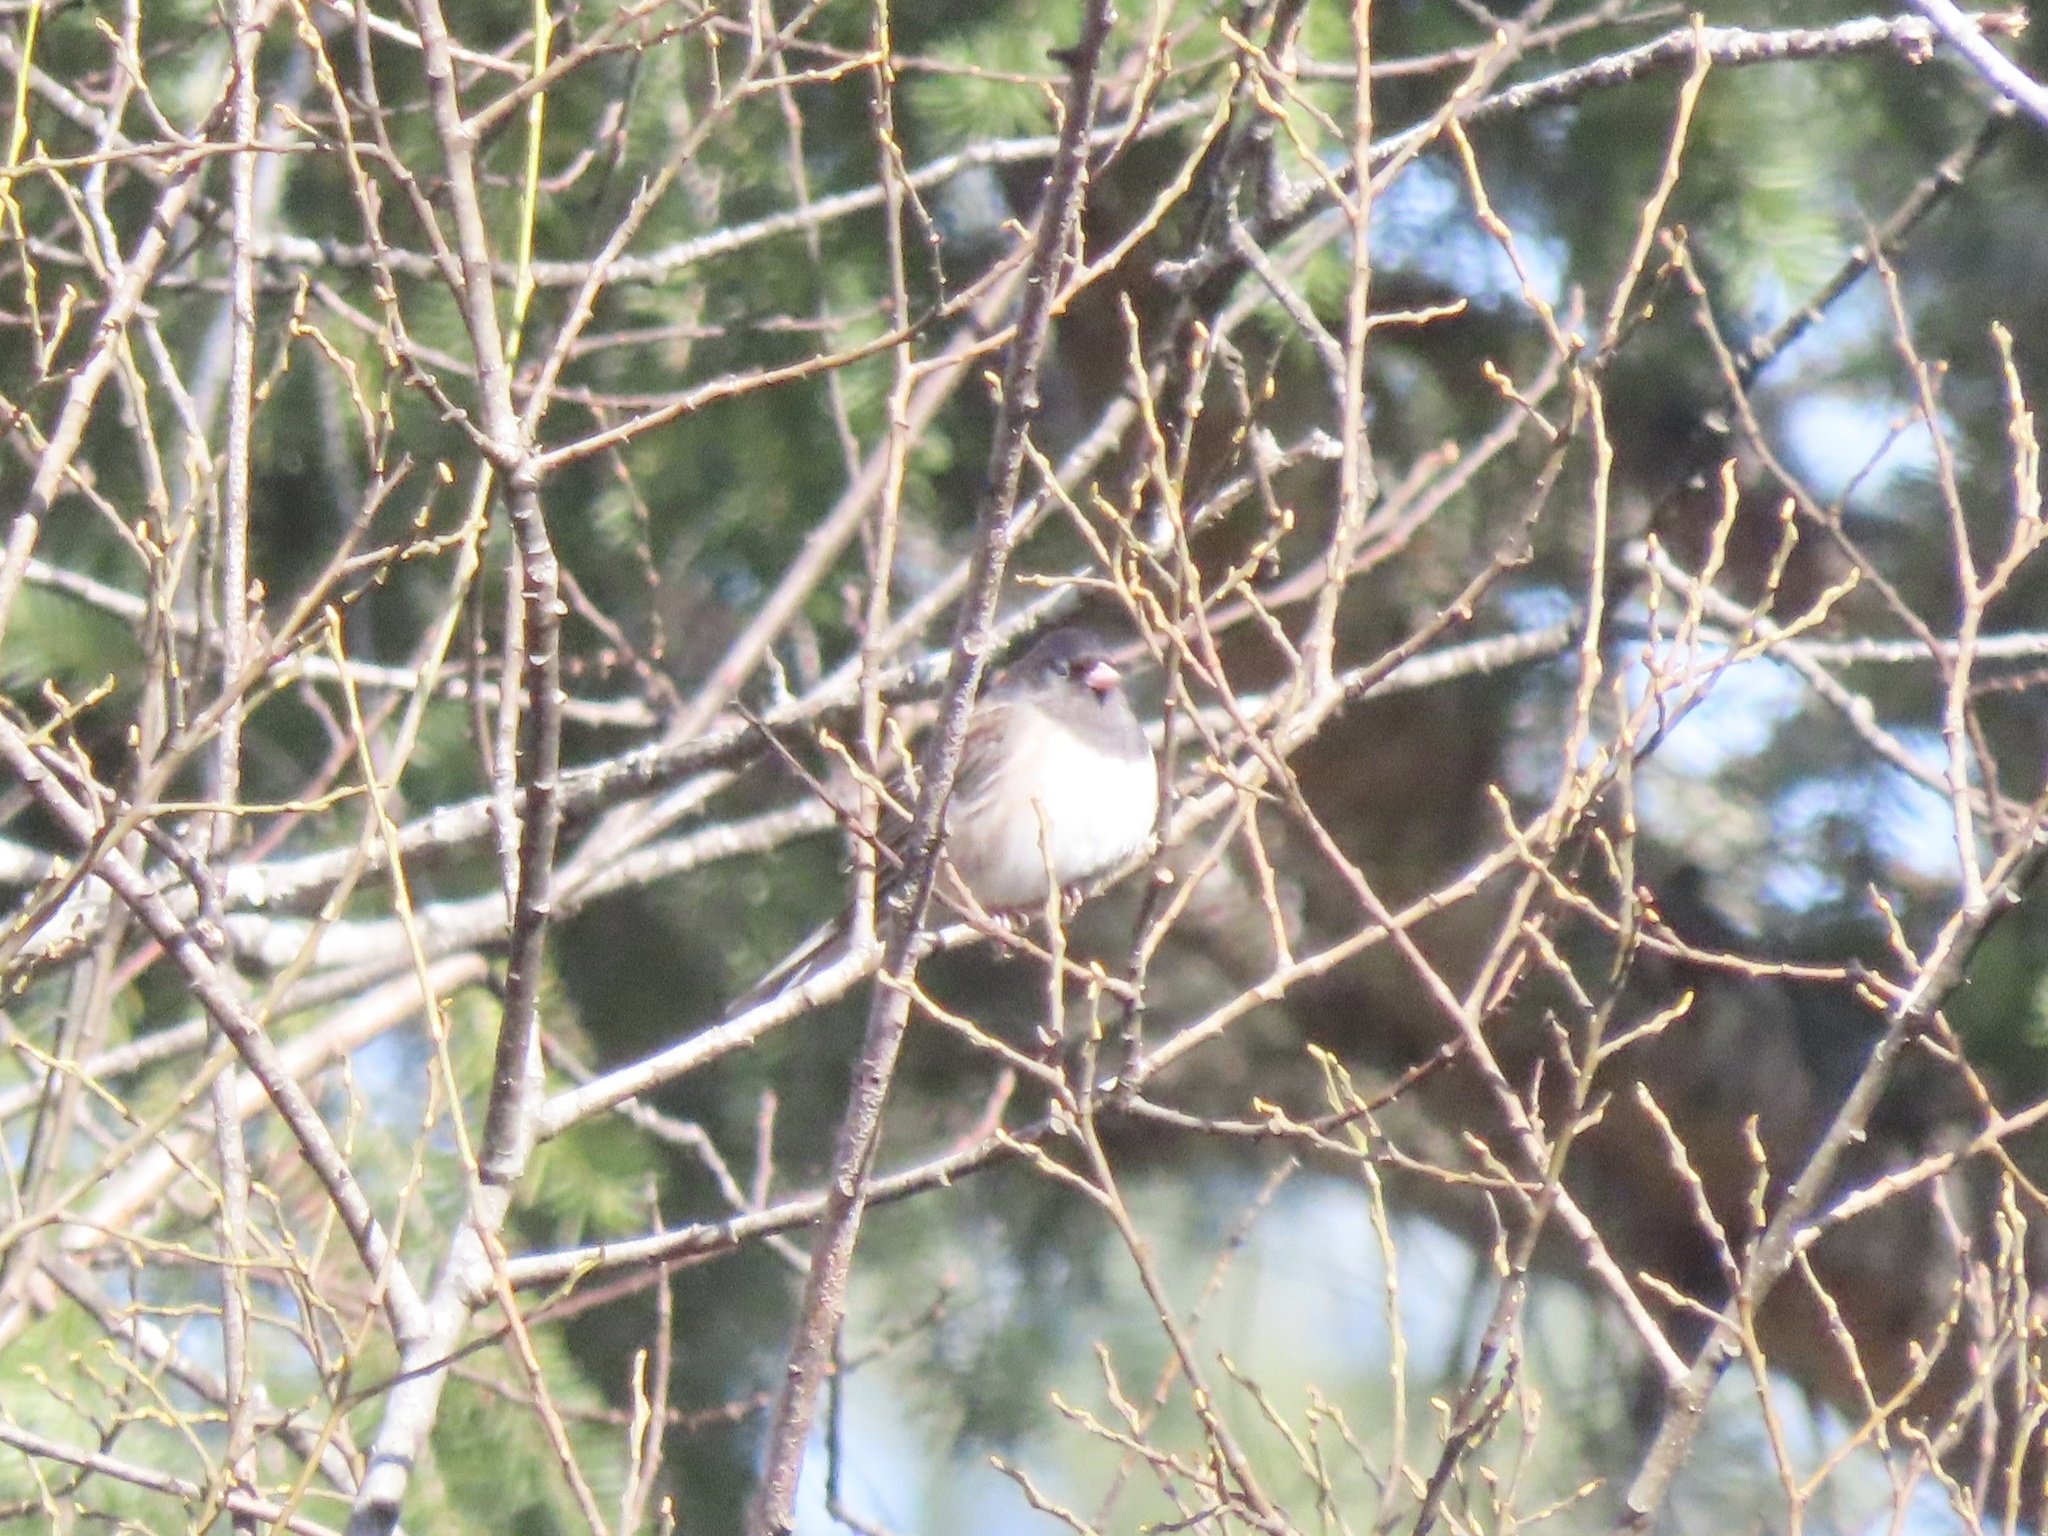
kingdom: Animalia
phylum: Chordata
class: Aves
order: Passeriformes
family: Passerellidae
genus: Junco
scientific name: Junco hyemalis
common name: Dark-eyed junco
